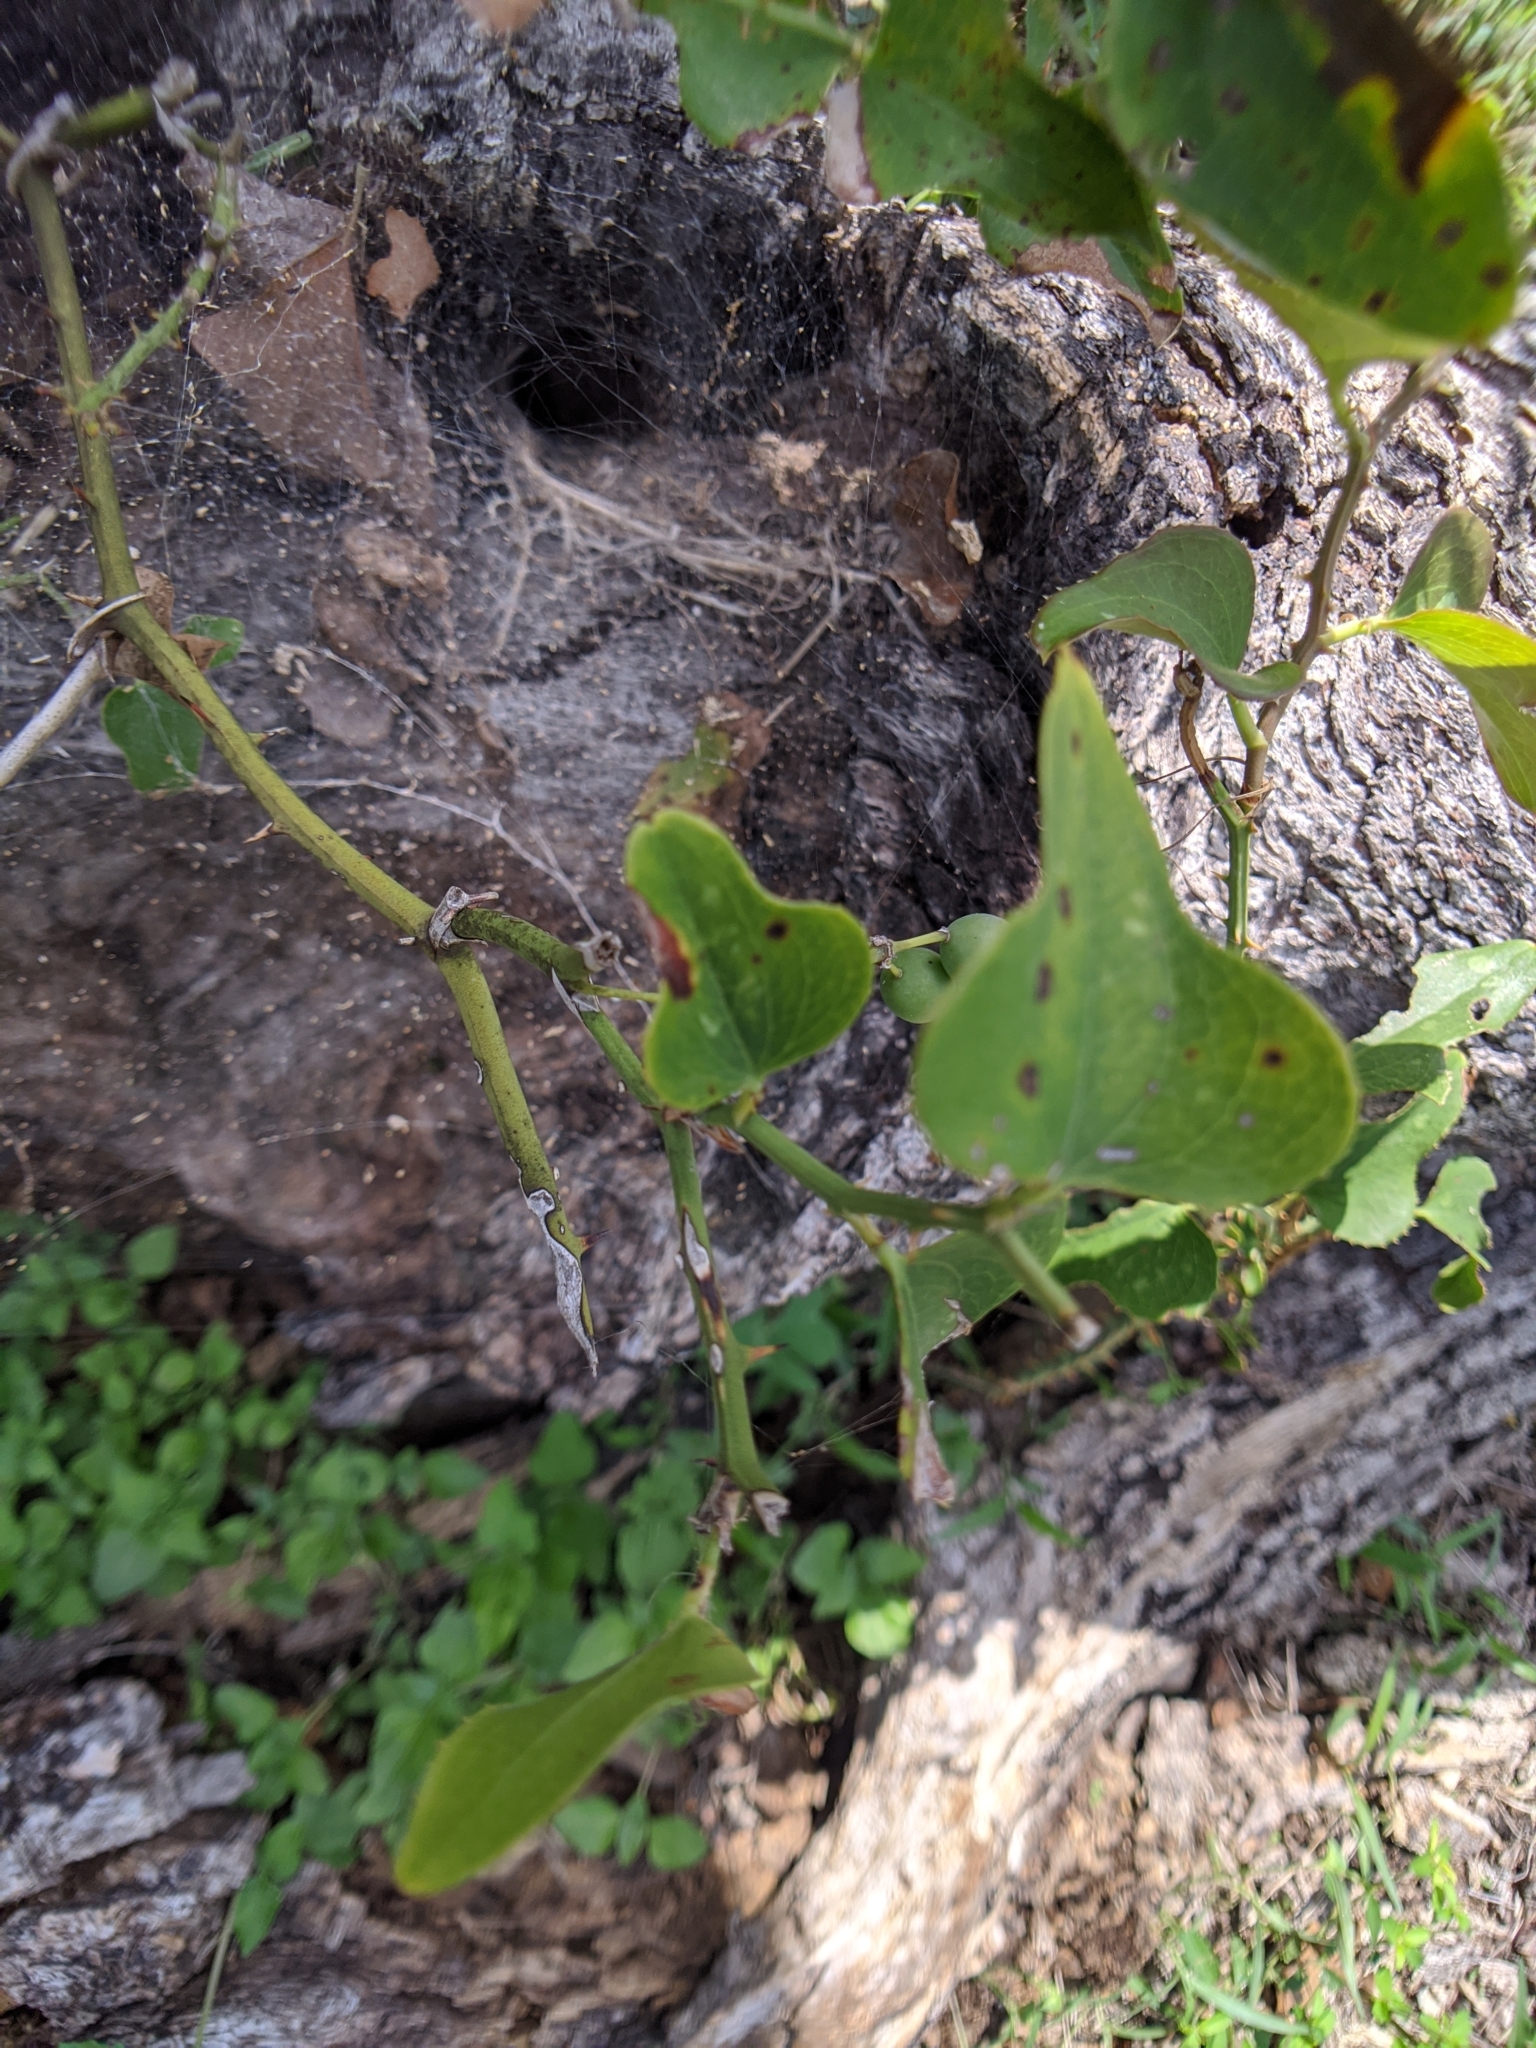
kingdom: Plantae
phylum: Tracheophyta
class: Liliopsida
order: Liliales
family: Smilacaceae
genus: Smilax
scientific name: Smilax bona-nox
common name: Catbrier
